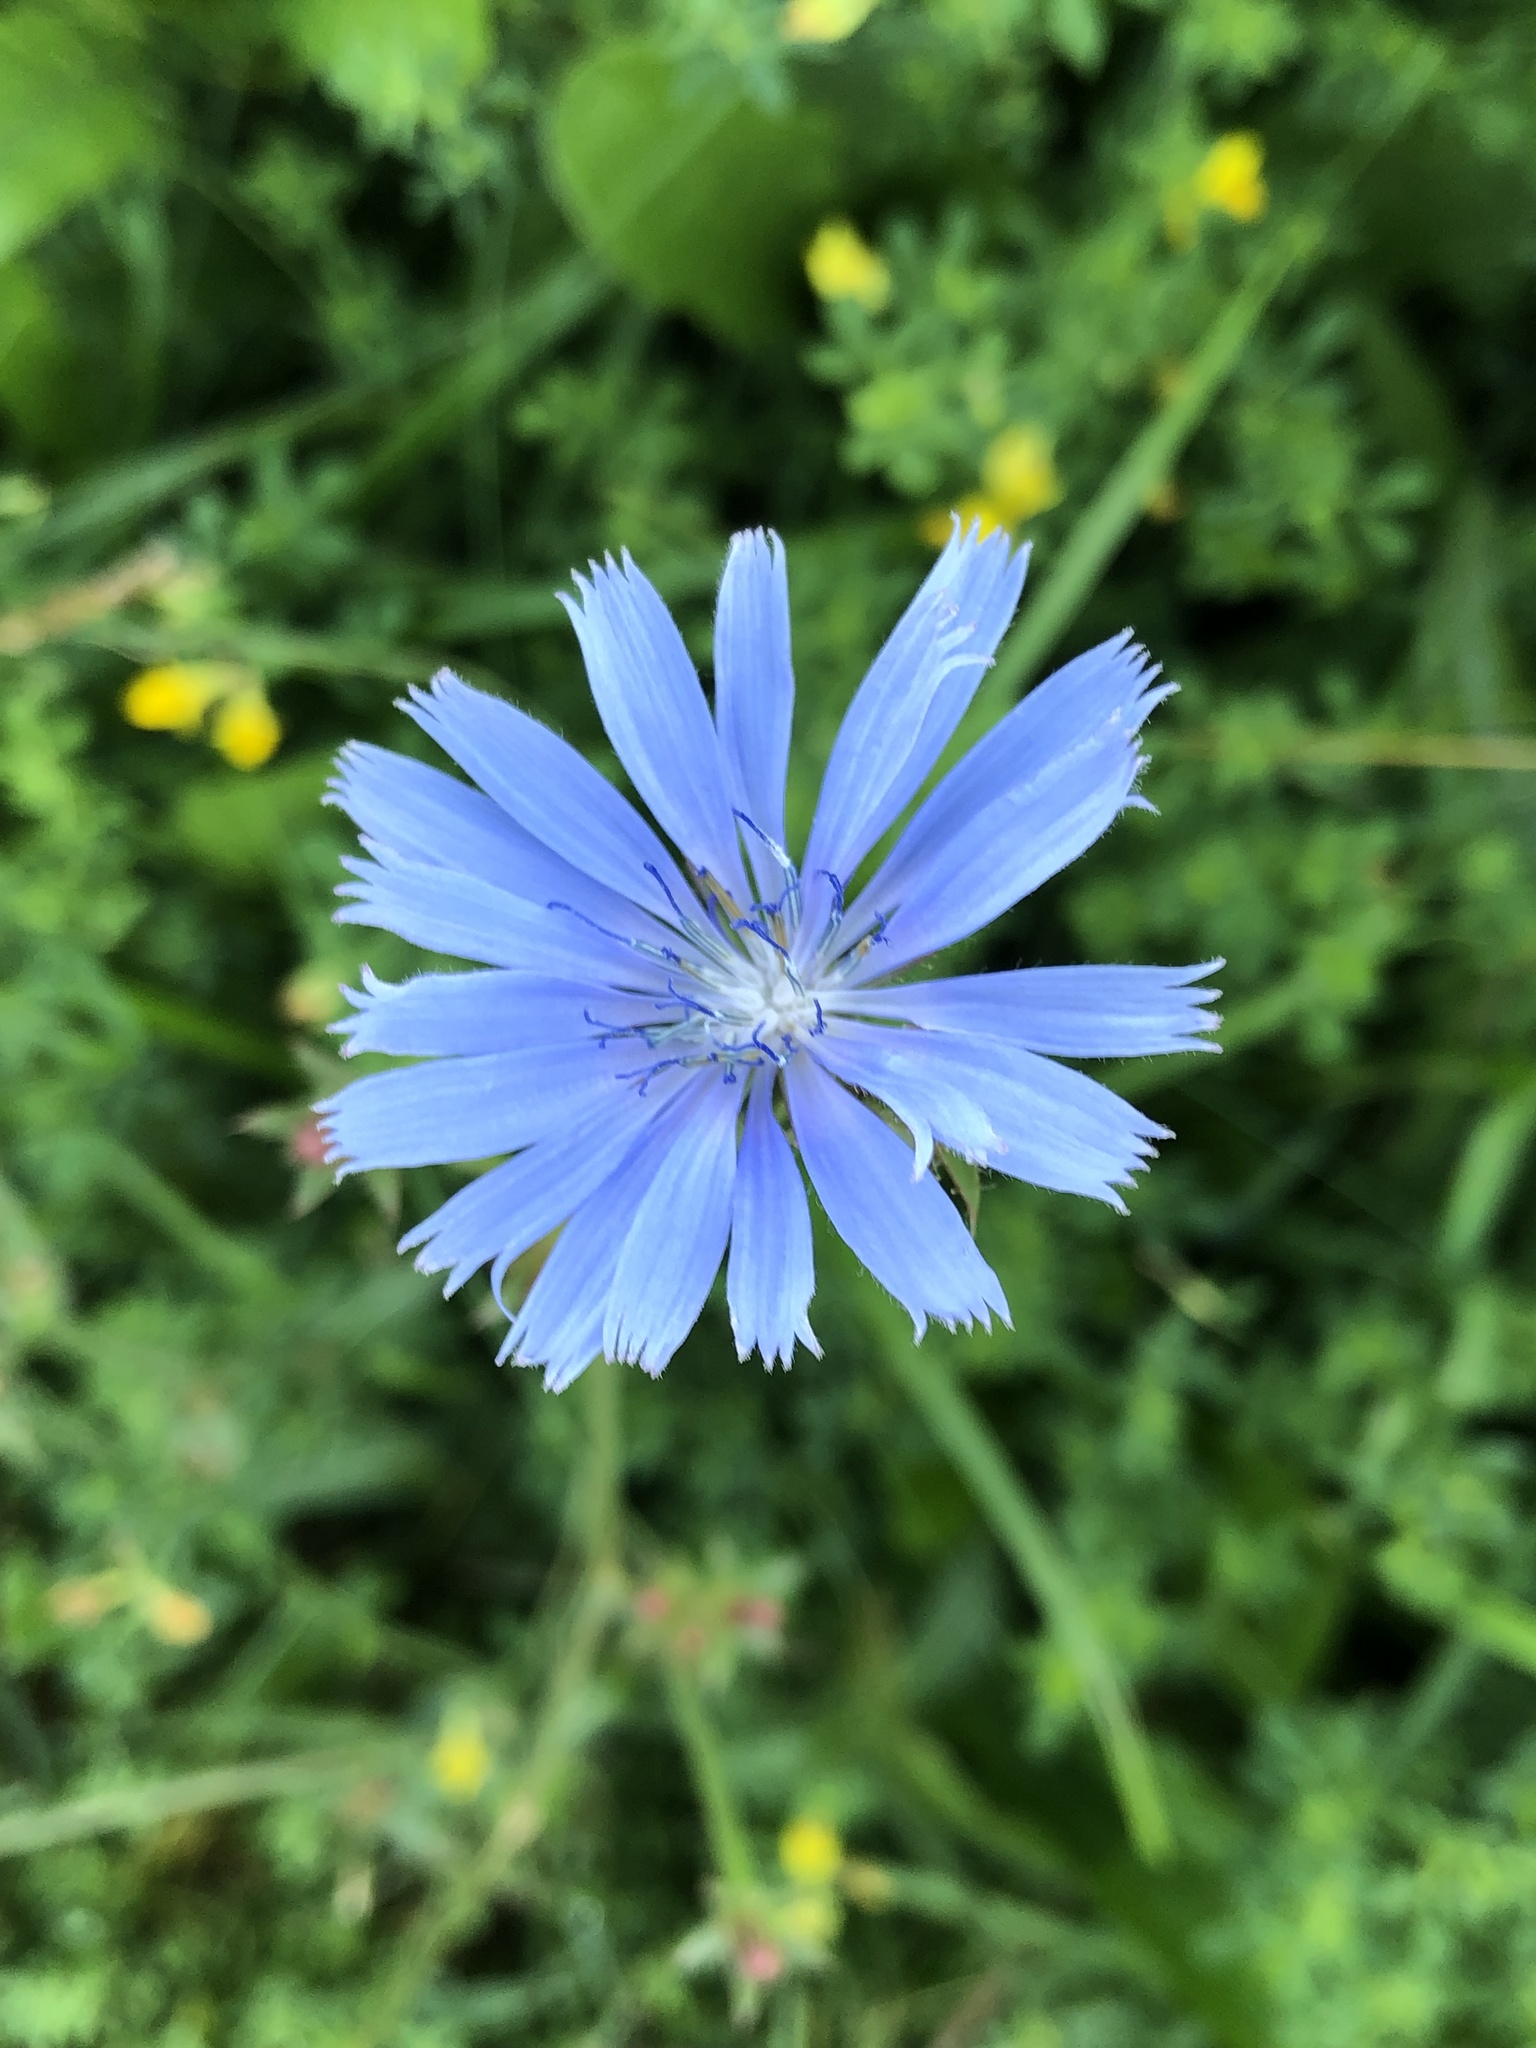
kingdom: Plantae
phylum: Tracheophyta
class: Magnoliopsida
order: Asterales
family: Asteraceae
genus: Cichorium
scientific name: Cichorium intybus
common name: Chicory
